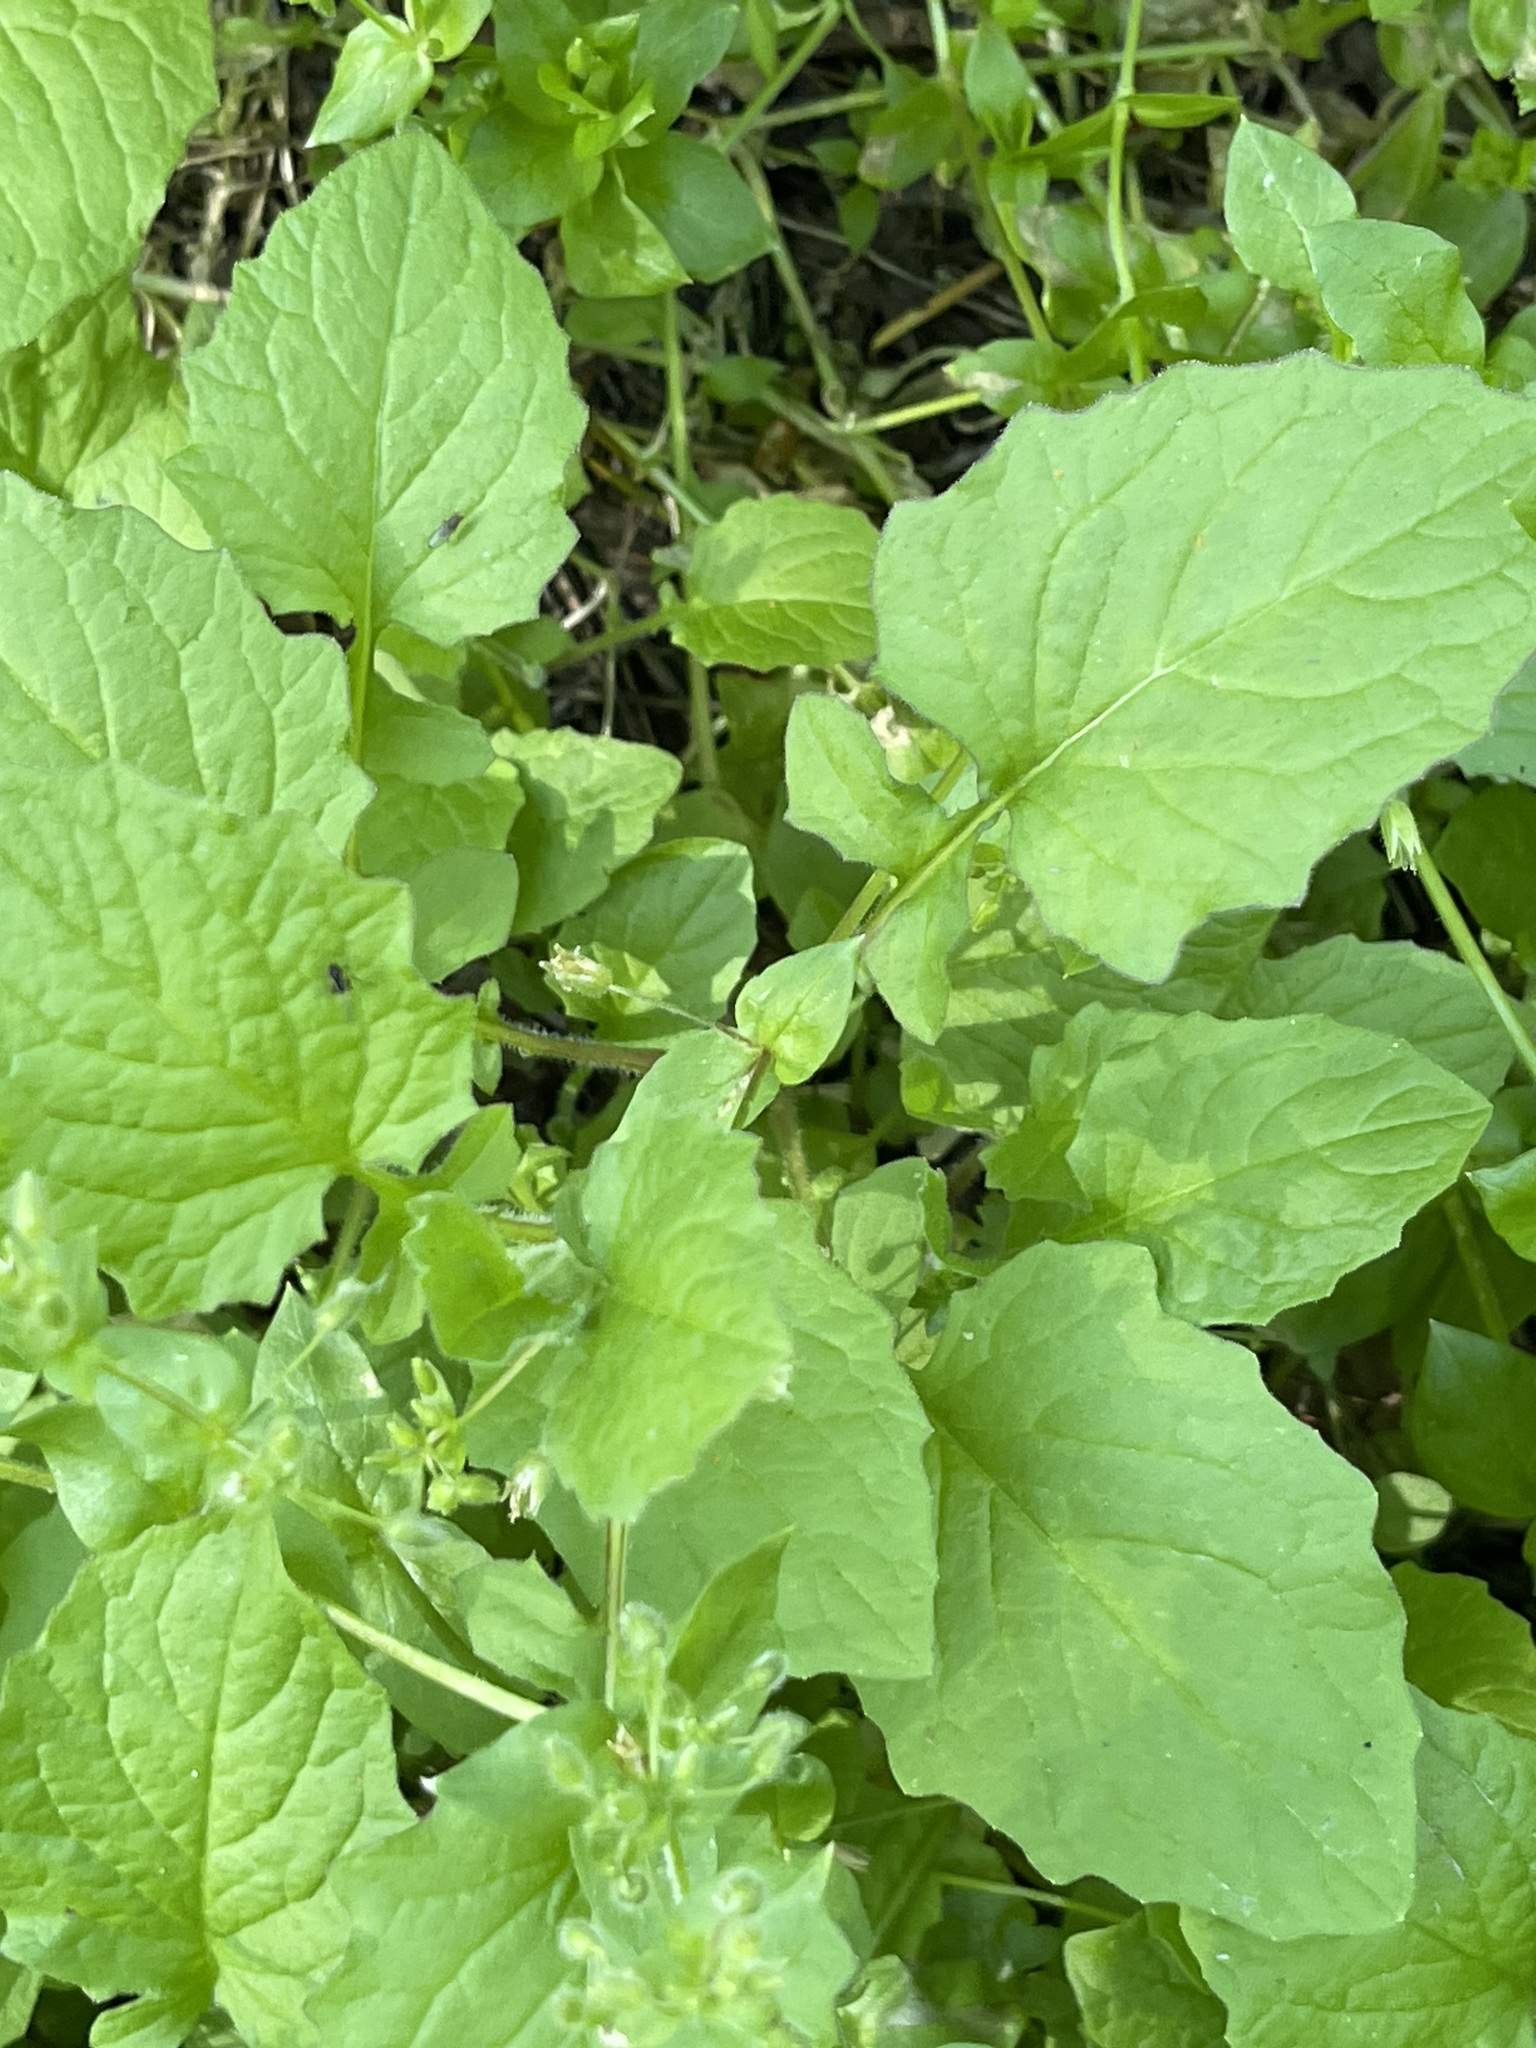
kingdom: Plantae
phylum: Tracheophyta
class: Magnoliopsida
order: Asterales
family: Asteraceae
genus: Lapsana
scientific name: Lapsana communis
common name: Nipplewort
